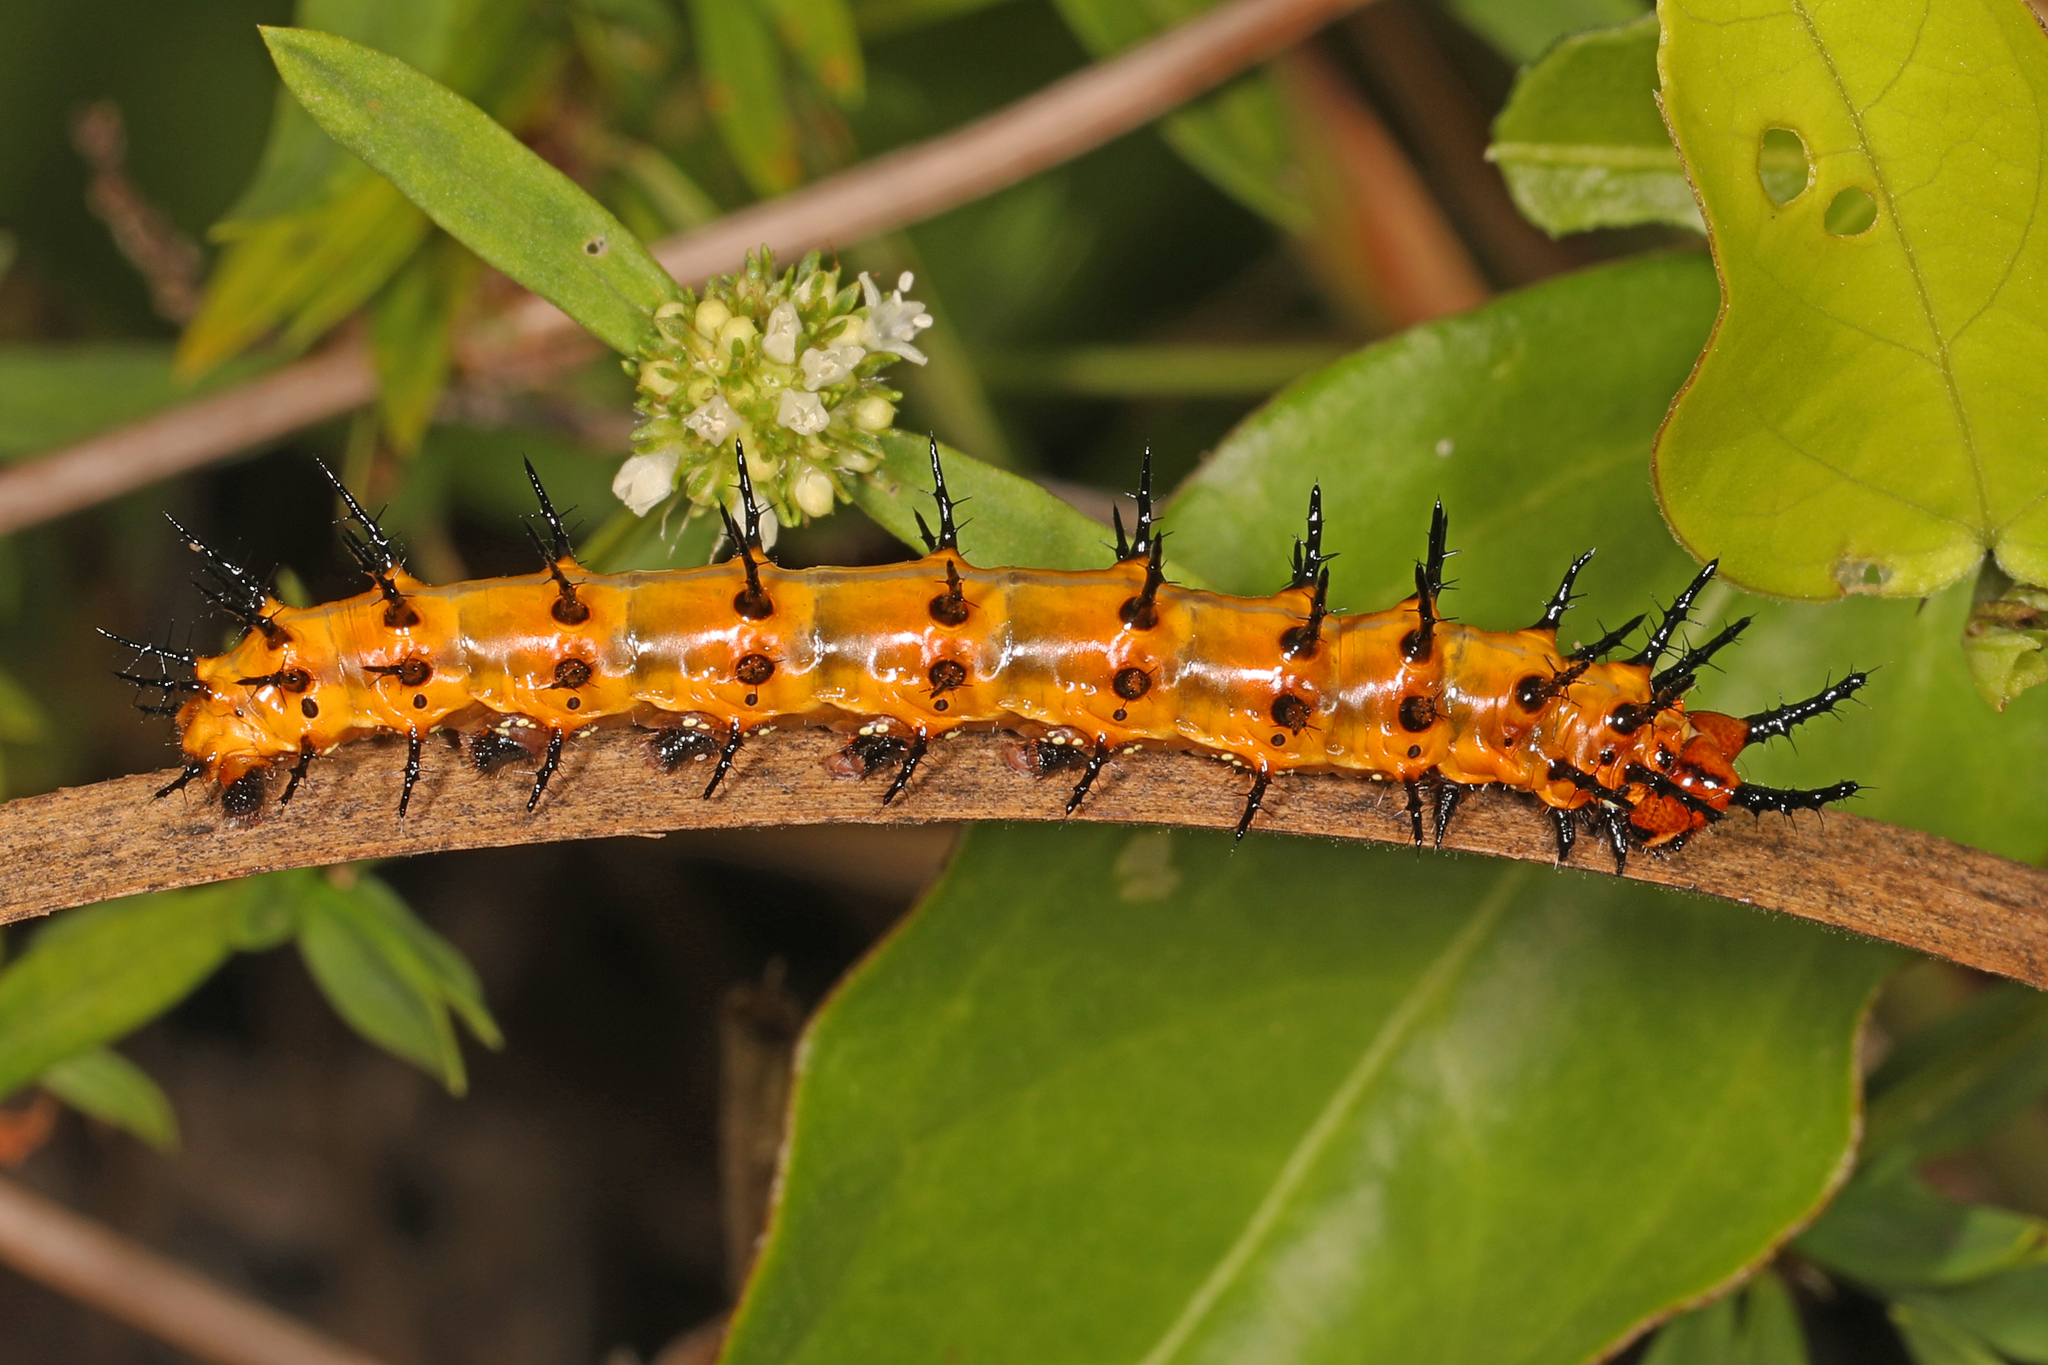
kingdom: Animalia
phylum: Arthropoda
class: Insecta
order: Lepidoptera
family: Nymphalidae
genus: Dione
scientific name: Dione vanillae
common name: Gulf fritillary
